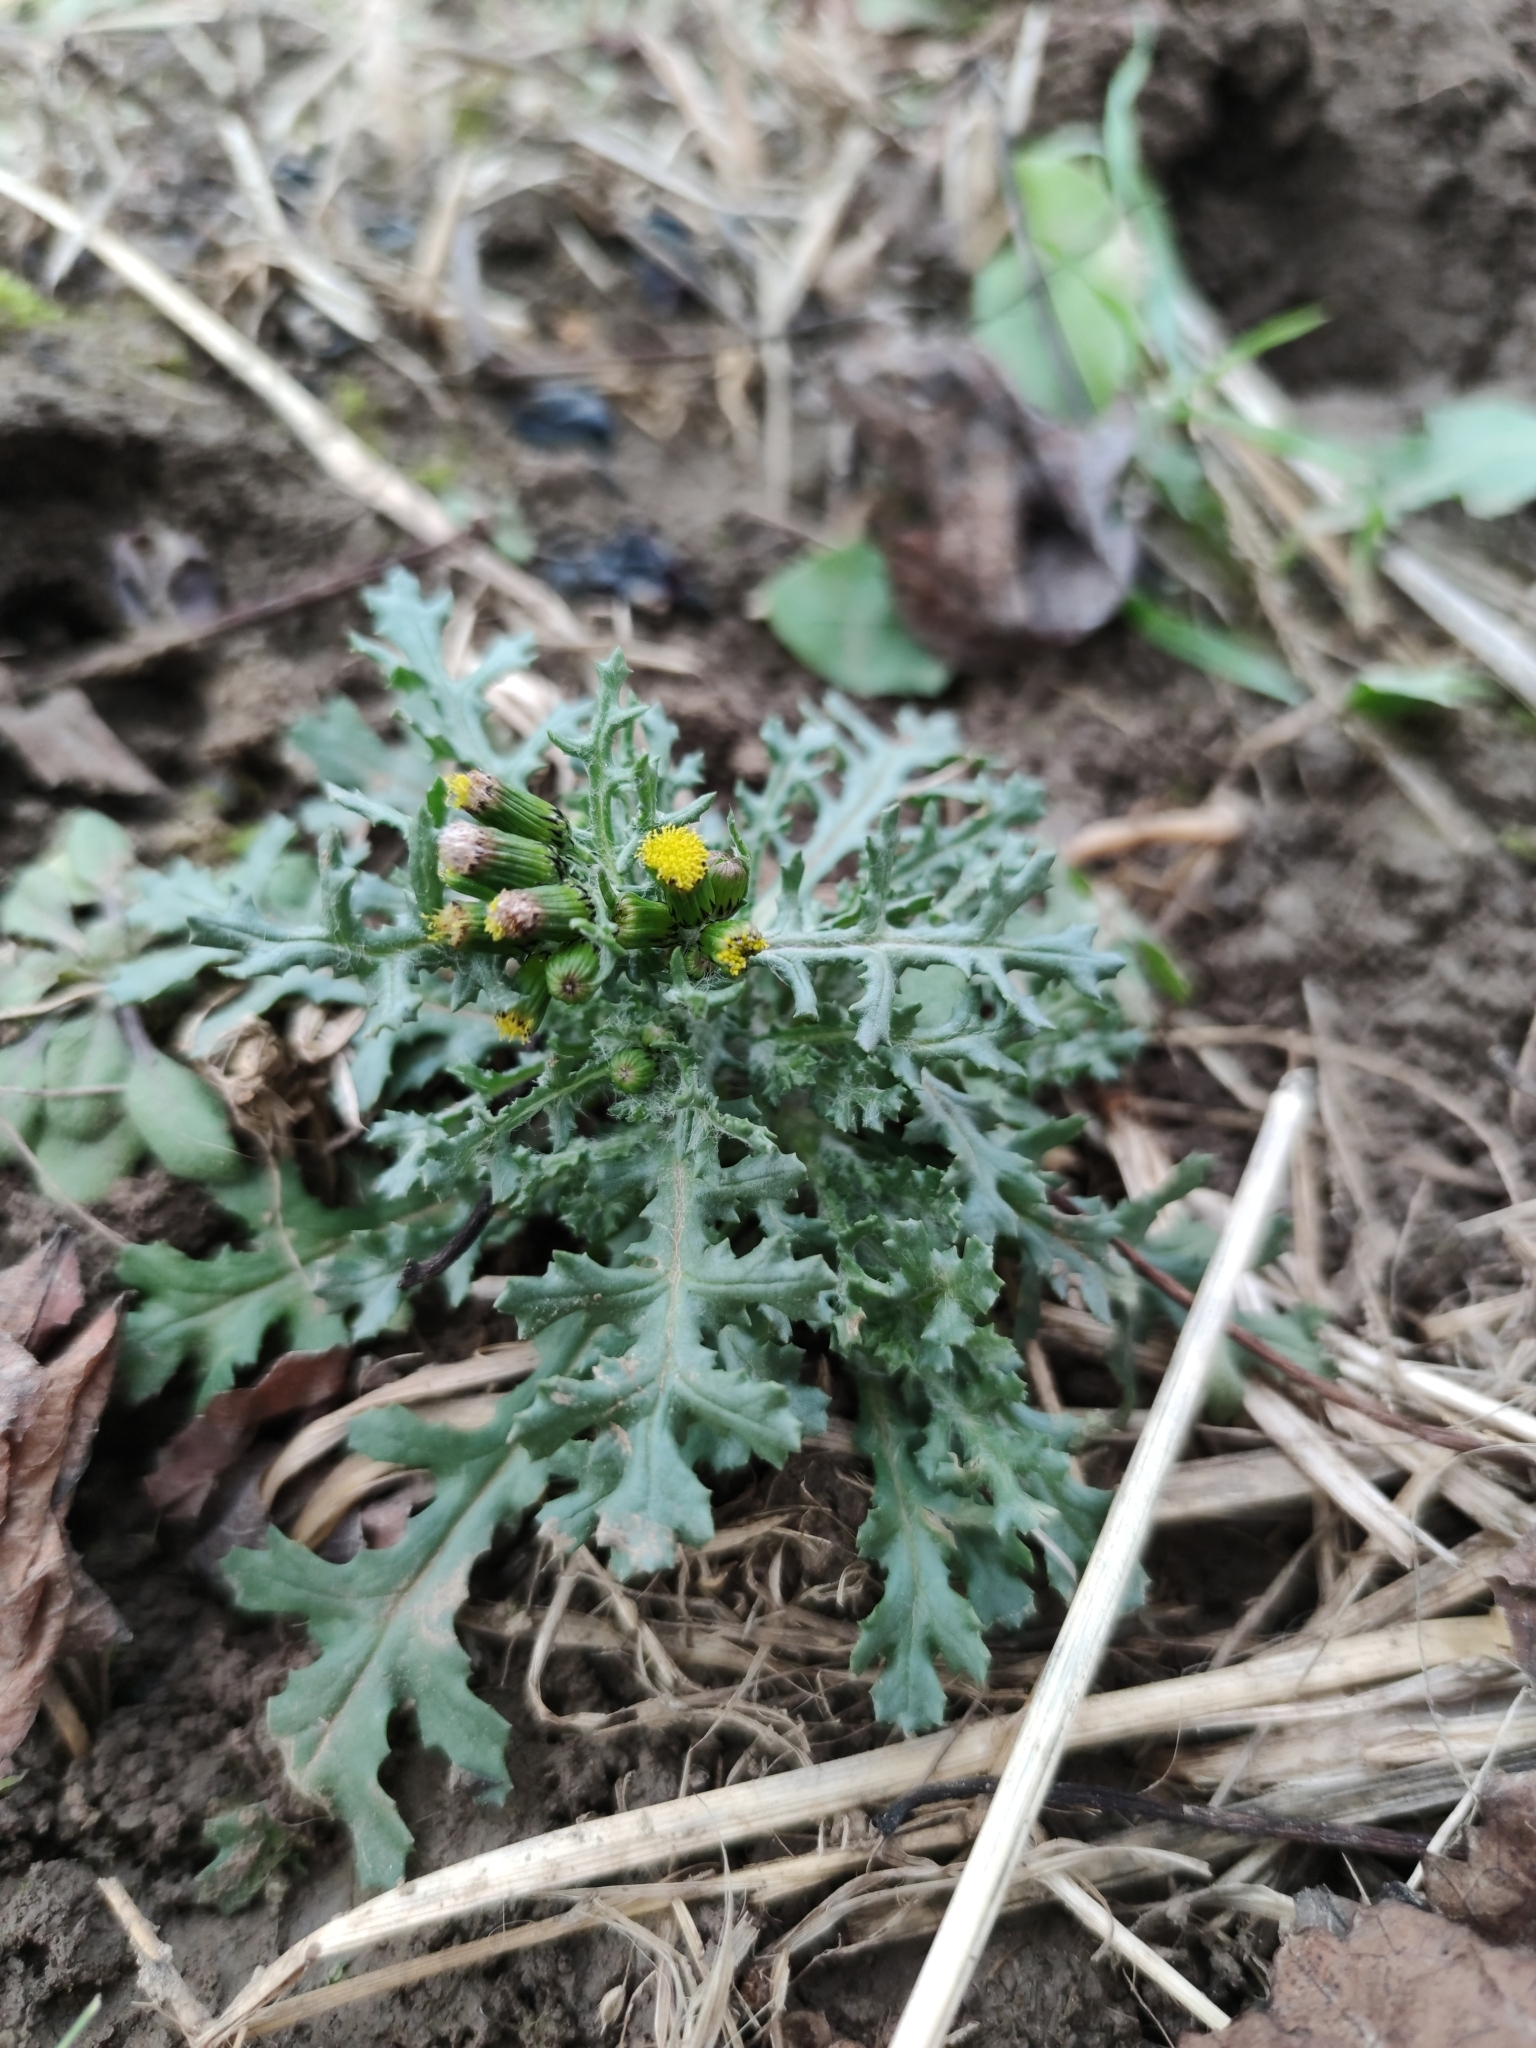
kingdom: Plantae
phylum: Tracheophyta
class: Magnoliopsida
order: Asterales
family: Asteraceae
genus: Senecio
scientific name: Senecio vulgaris
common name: Old-man-in-the-spring
